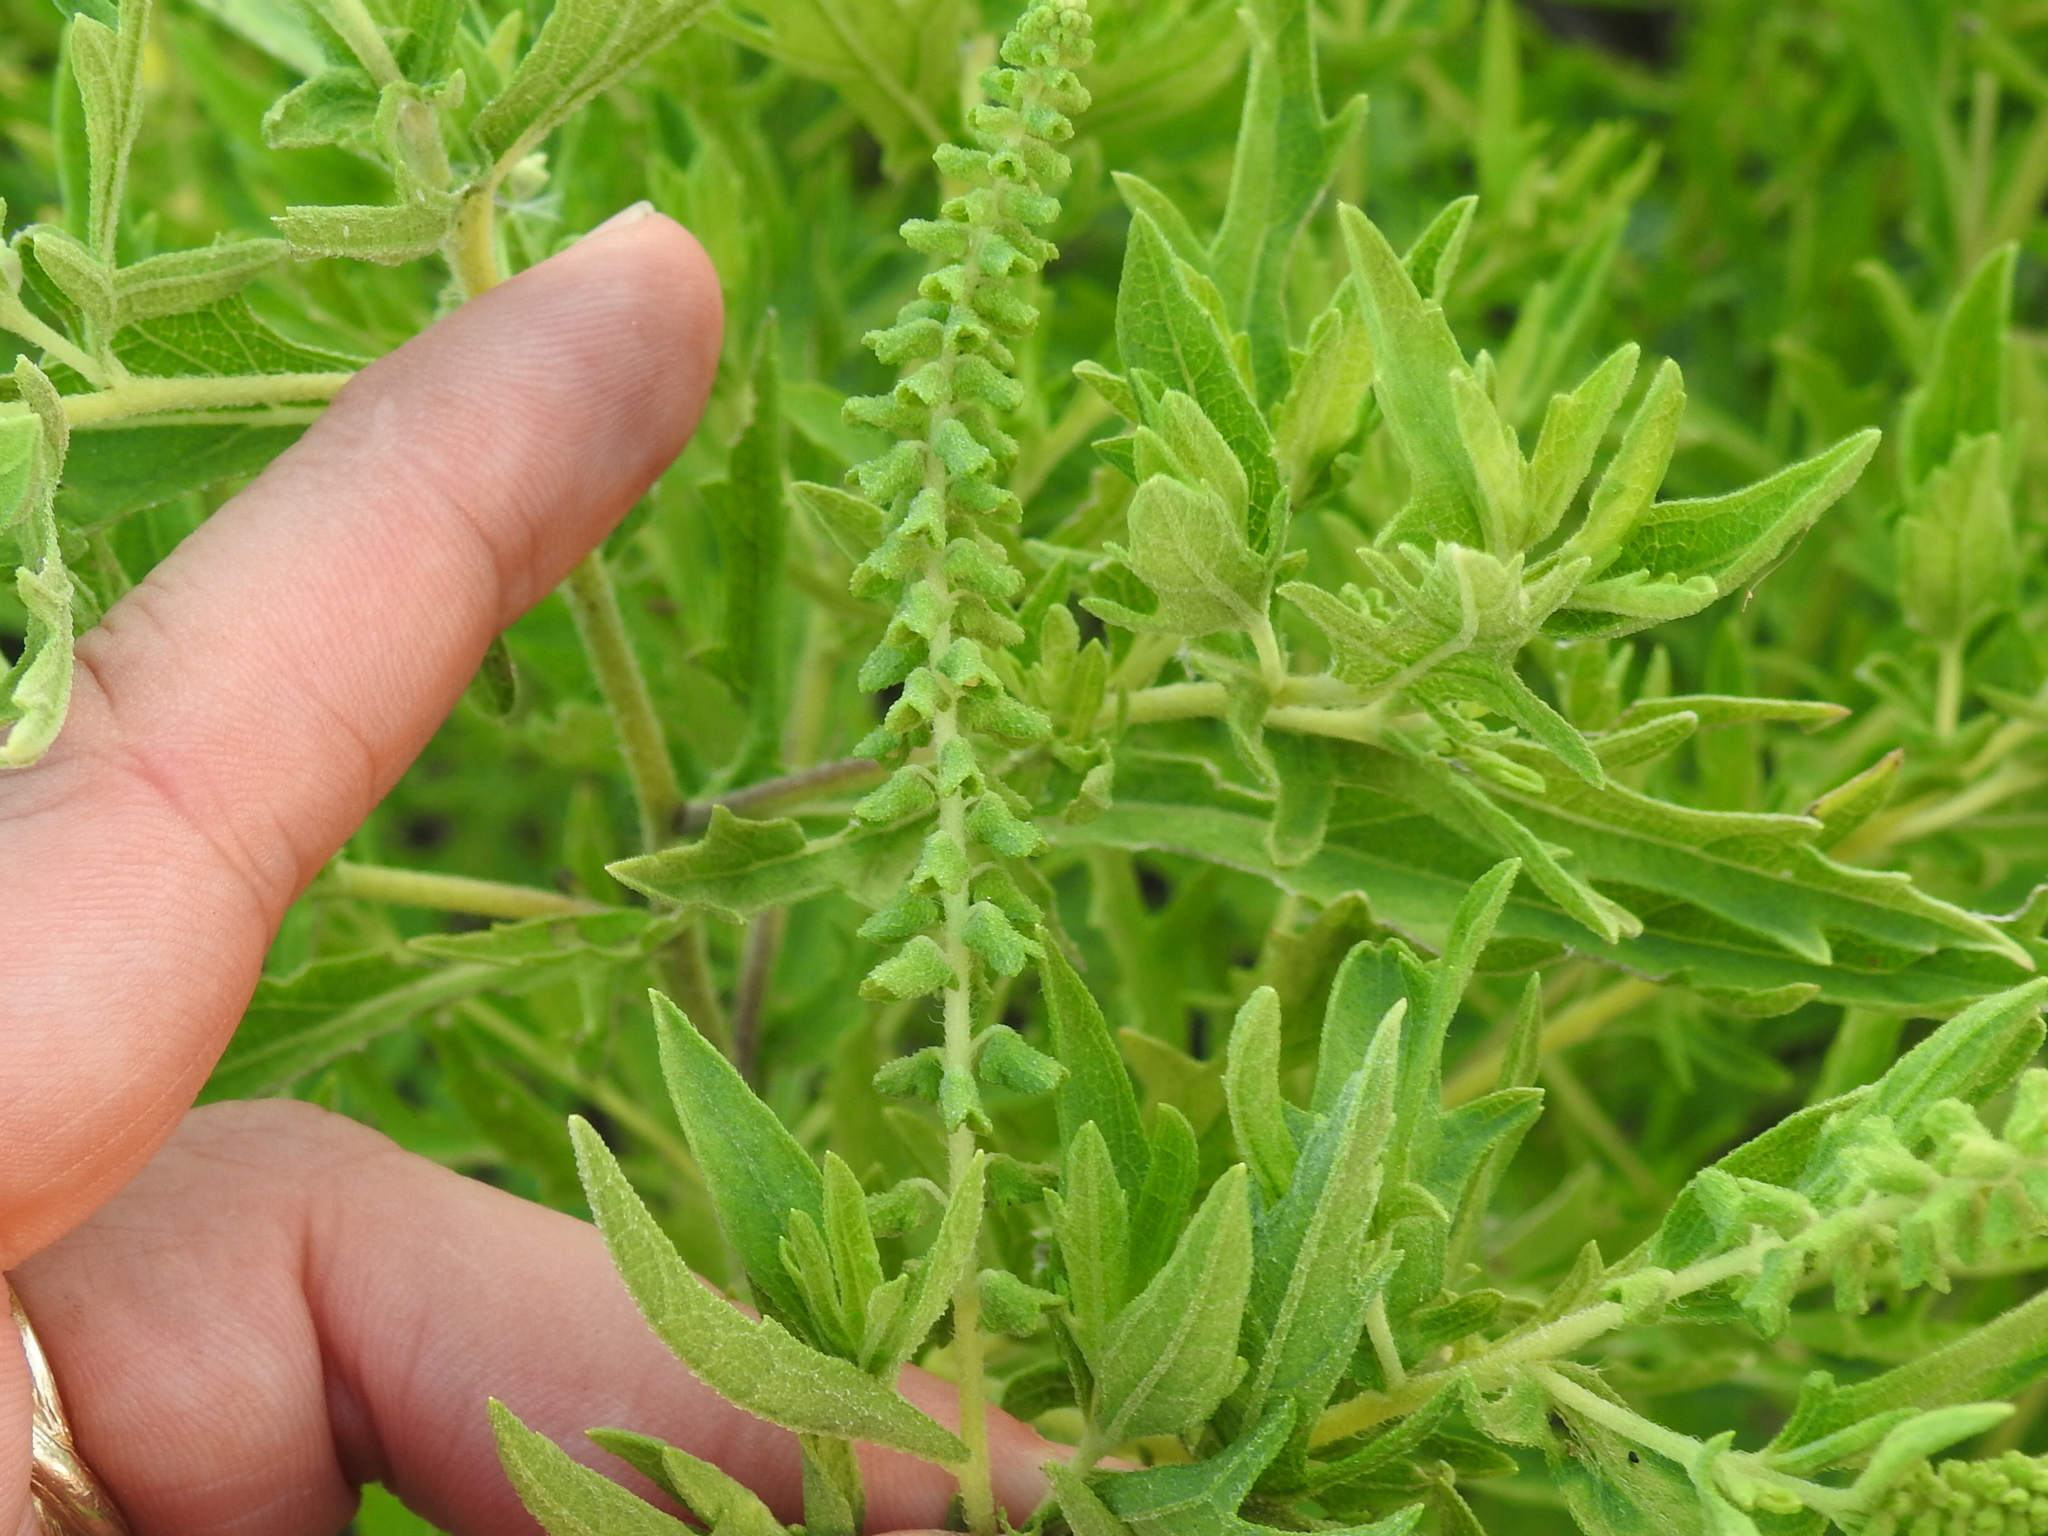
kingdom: Plantae
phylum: Tracheophyta
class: Magnoliopsida
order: Asterales
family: Asteraceae
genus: Ambrosia
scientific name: Ambrosia psilostachya
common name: Perennial ragweed
